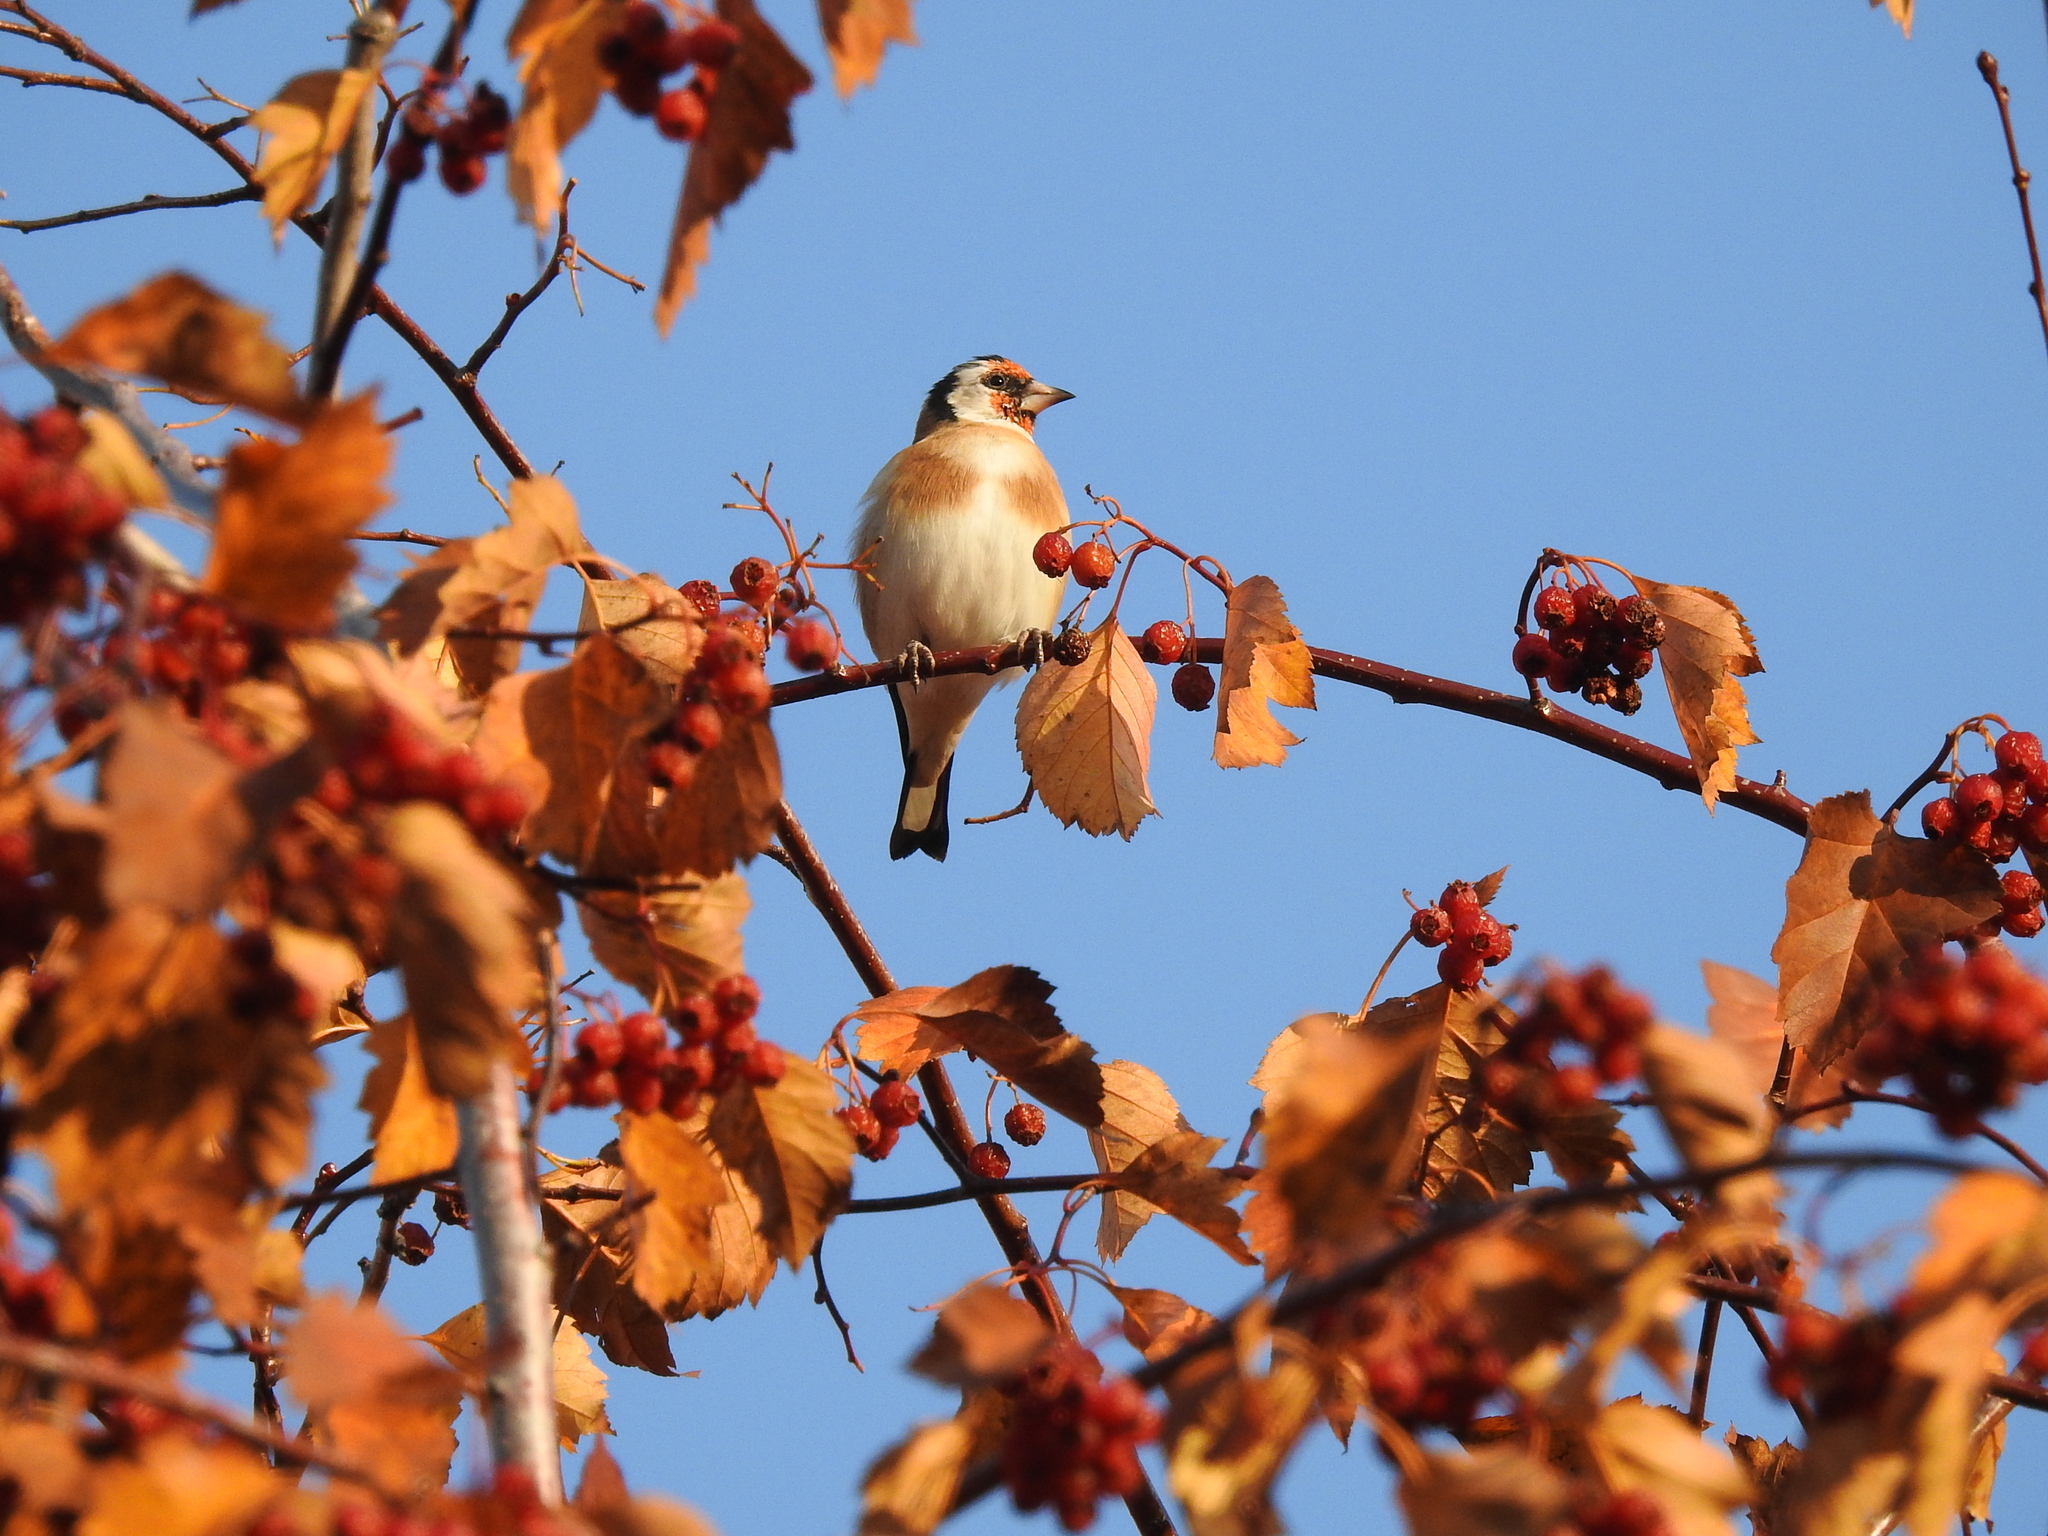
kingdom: Animalia
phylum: Chordata
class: Aves
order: Passeriformes
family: Fringillidae
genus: Carduelis
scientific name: Carduelis carduelis
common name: European goldfinch
